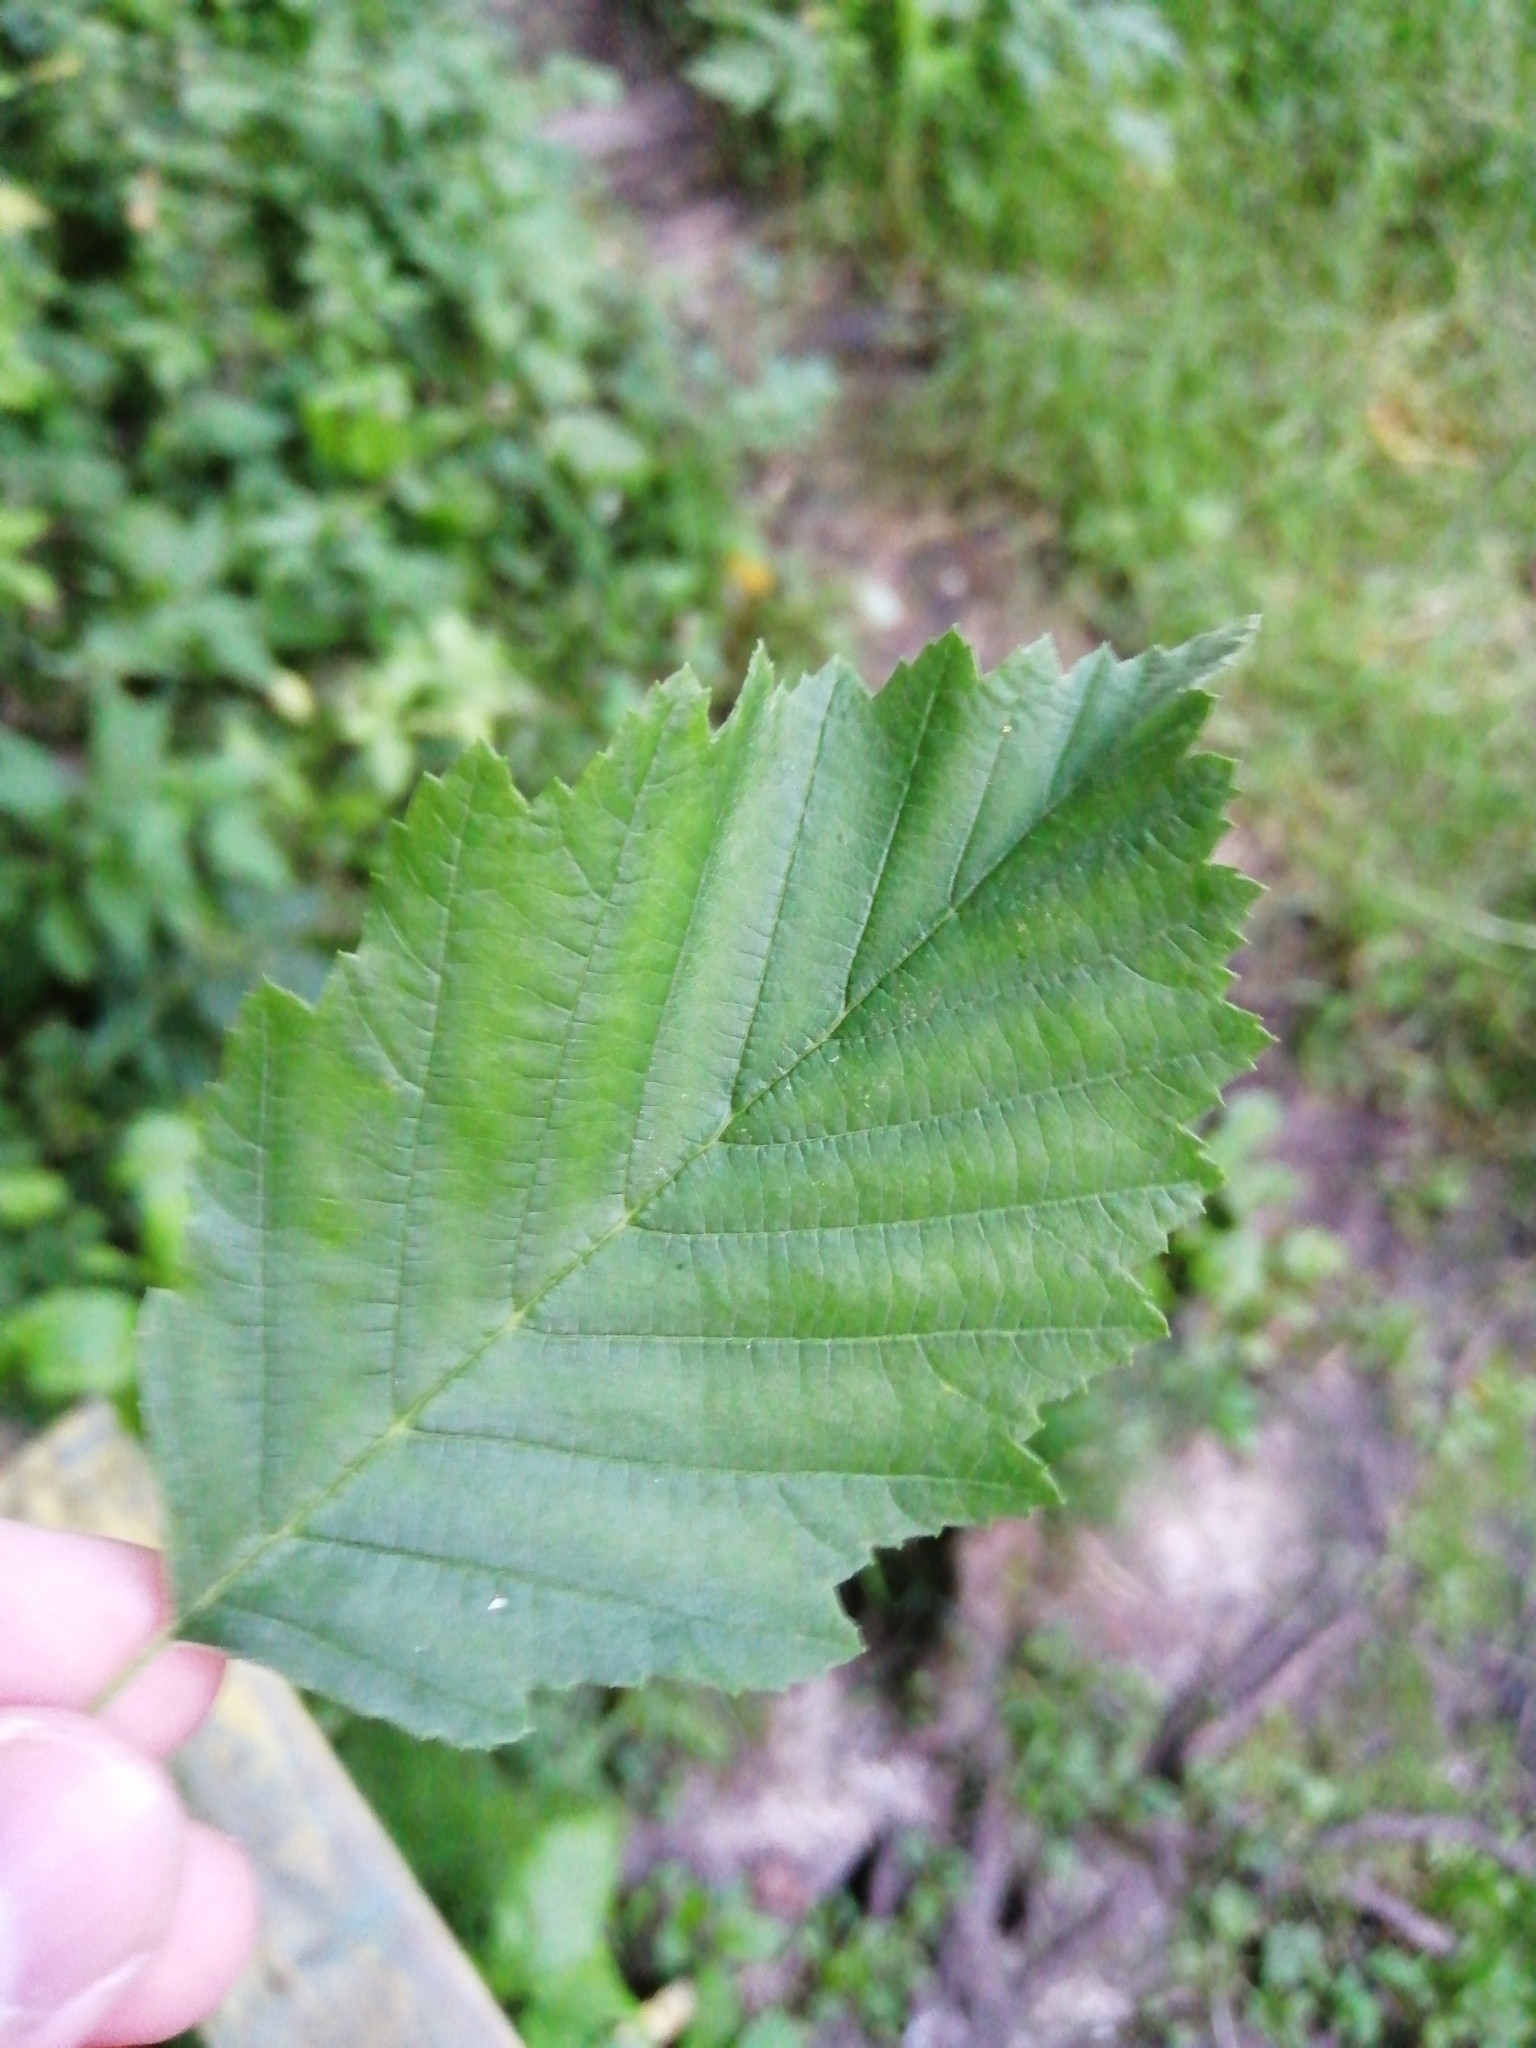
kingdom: Plantae
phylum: Tracheophyta
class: Magnoliopsida
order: Fagales
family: Betulaceae
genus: Alnus
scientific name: Alnus incana
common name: Grey alder
